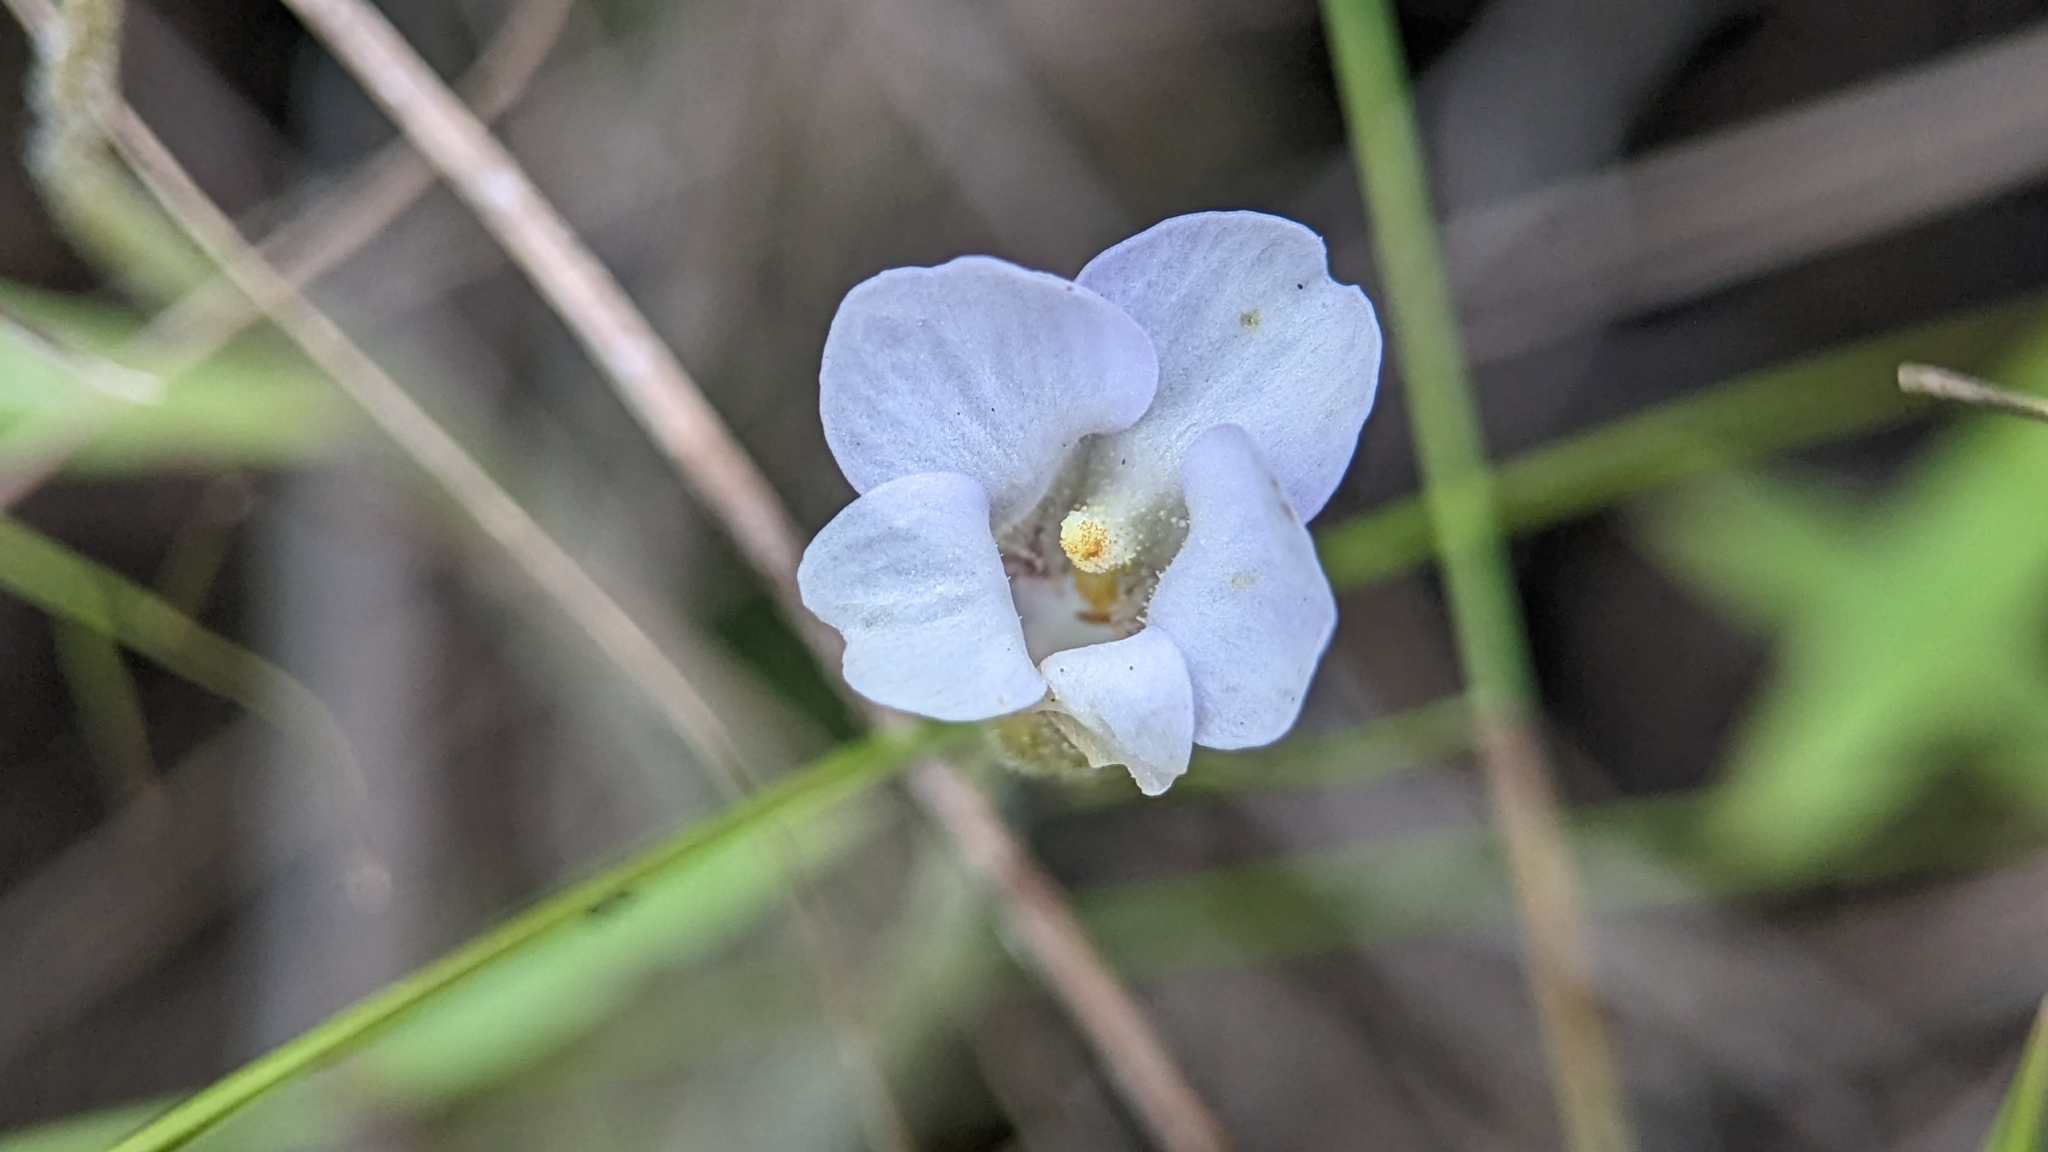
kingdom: Plantae
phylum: Tracheophyta
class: Magnoliopsida
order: Lamiales
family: Lentibulariaceae
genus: Pinguicula
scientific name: Pinguicula pumila
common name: Small butterwort
